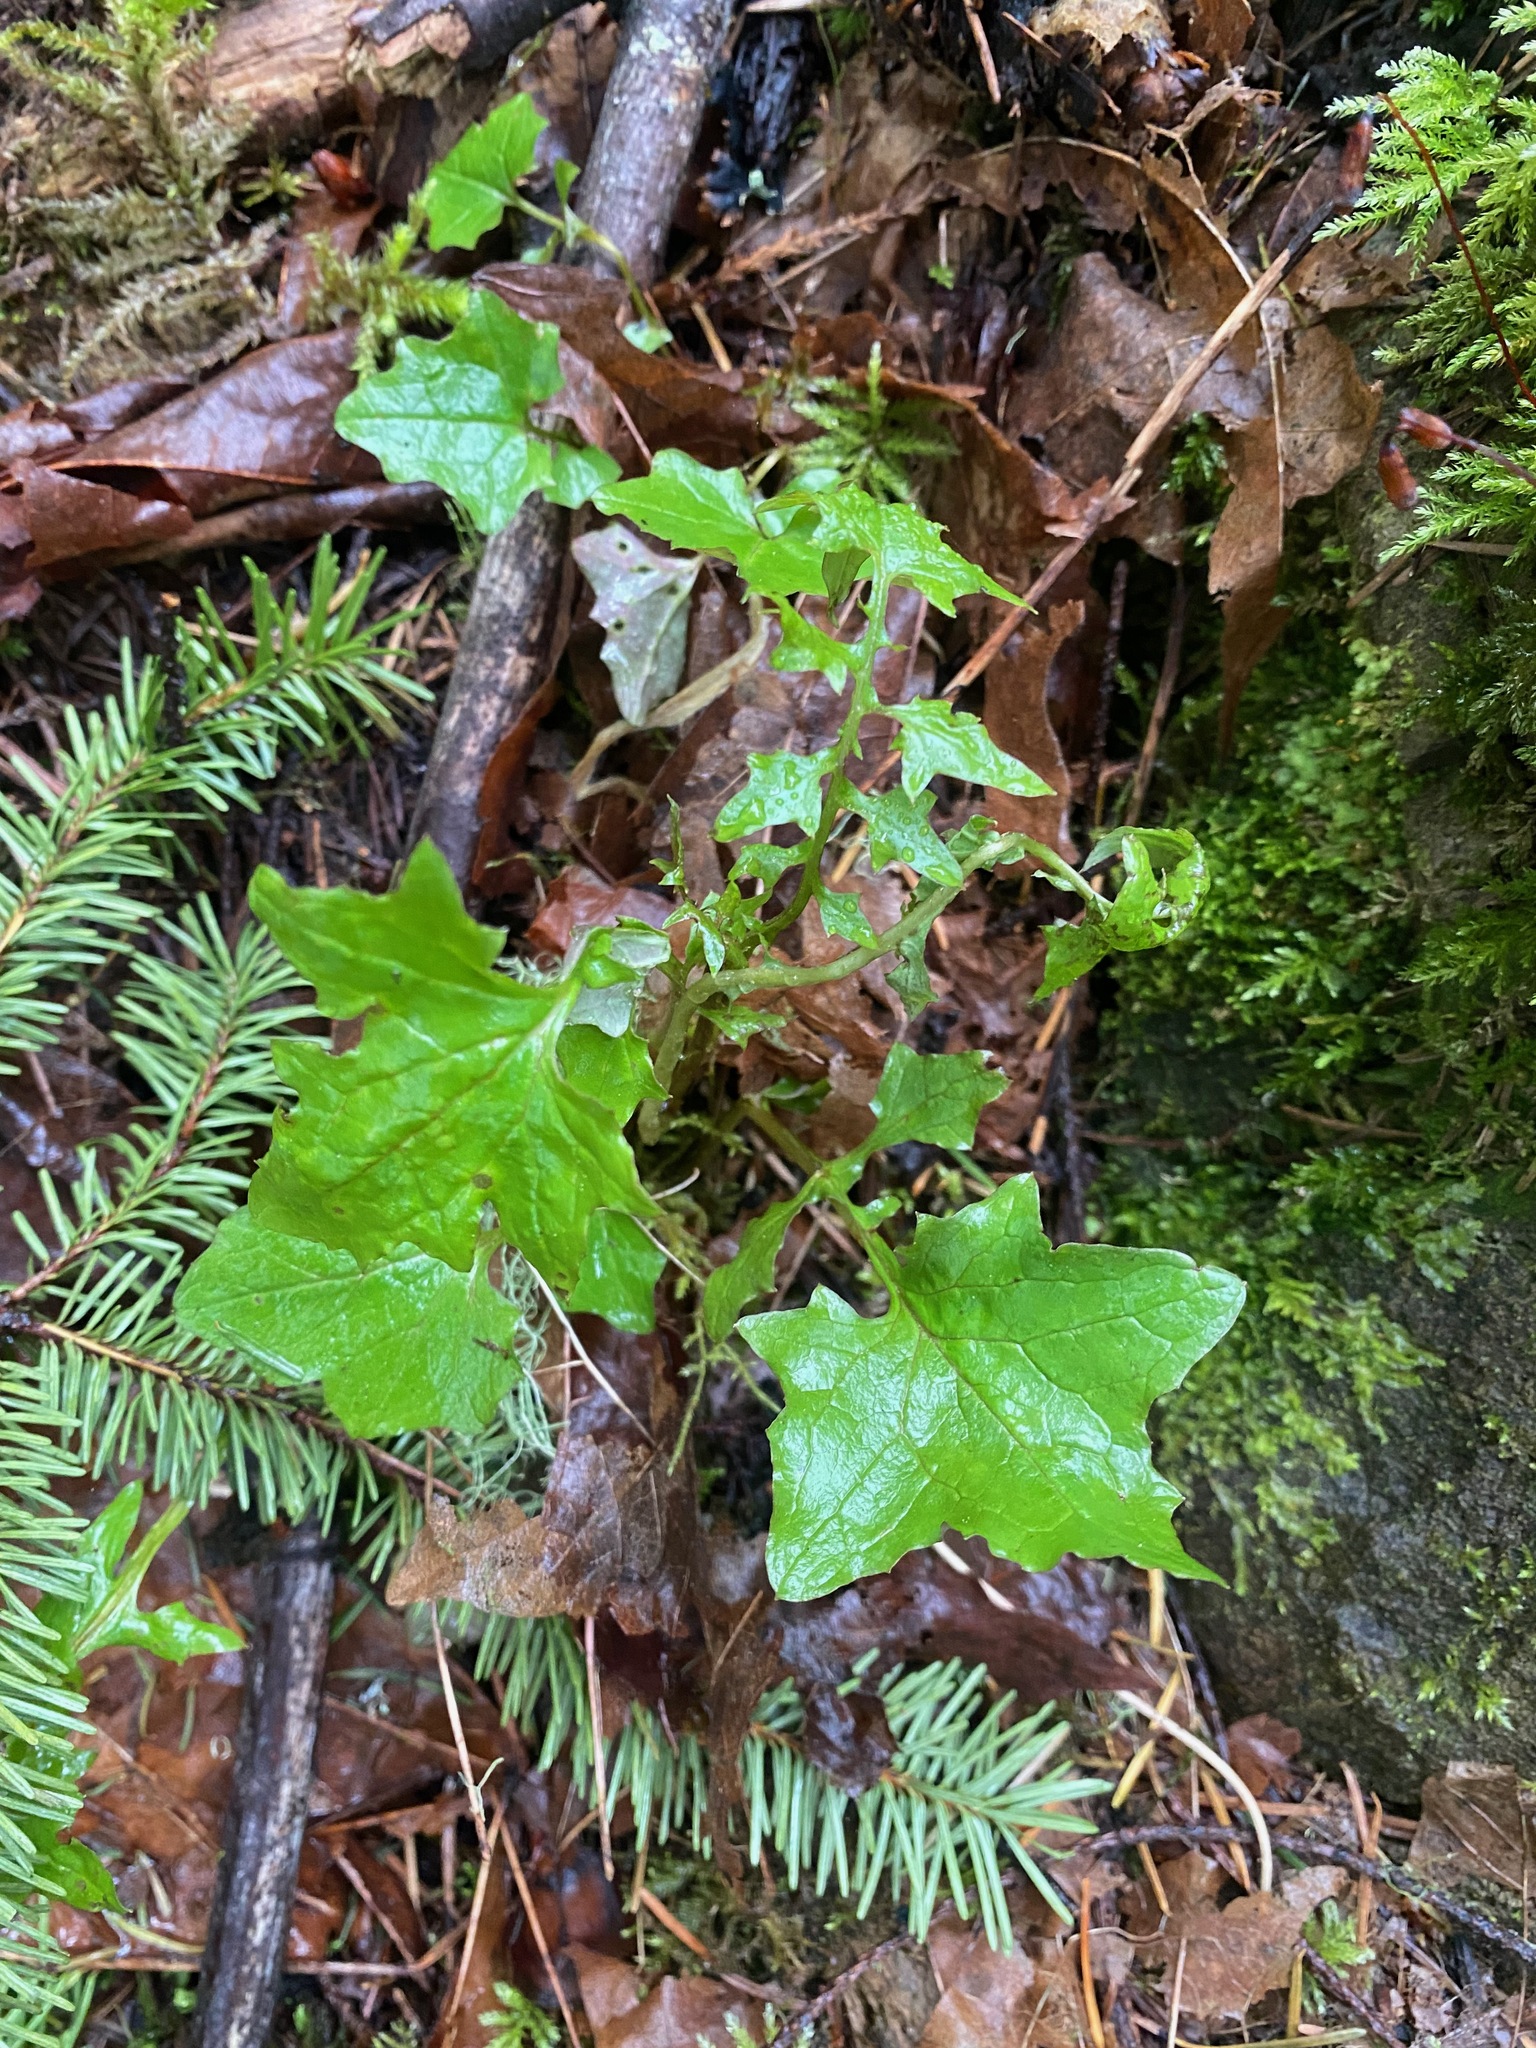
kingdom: Plantae
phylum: Tracheophyta
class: Magnoliopsida
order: Asterales
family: Asteraceae
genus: Mycelis
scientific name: Mycelis muralis
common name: Wall lettuce
